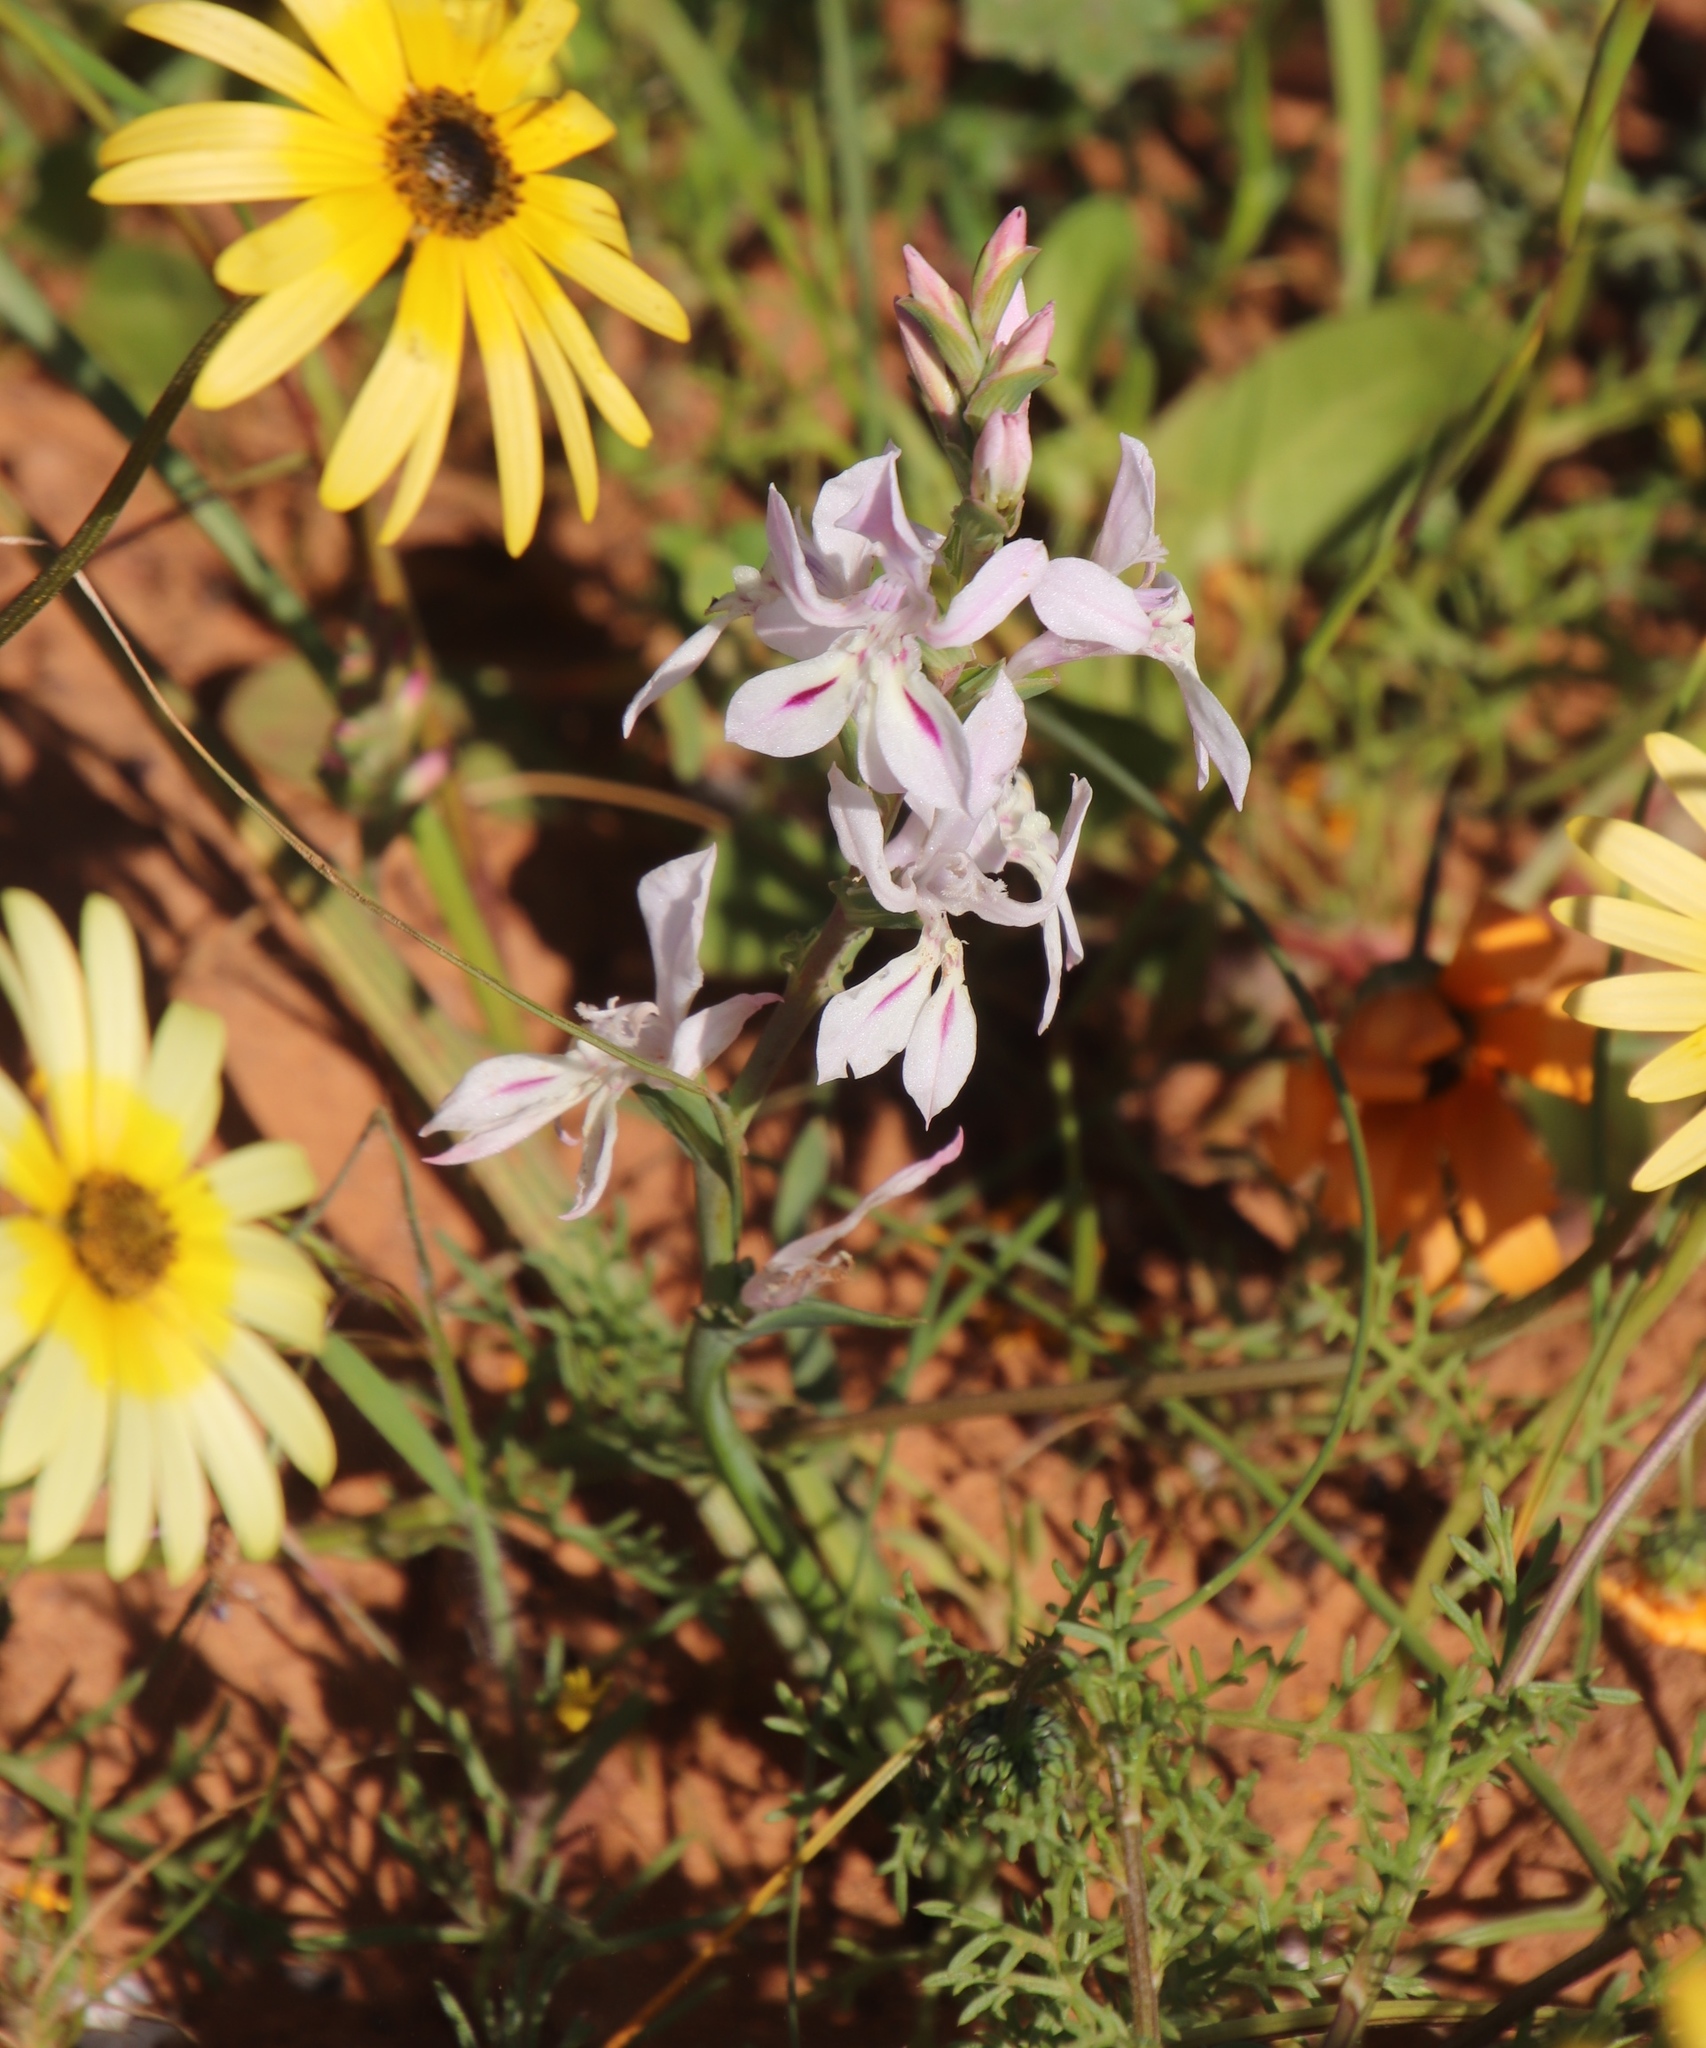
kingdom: Plantae
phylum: Tracheophyta
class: Liliopsida
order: Asparagales
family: Iridaceae
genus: Lapeirousia
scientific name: Lapeirousia divaricata
